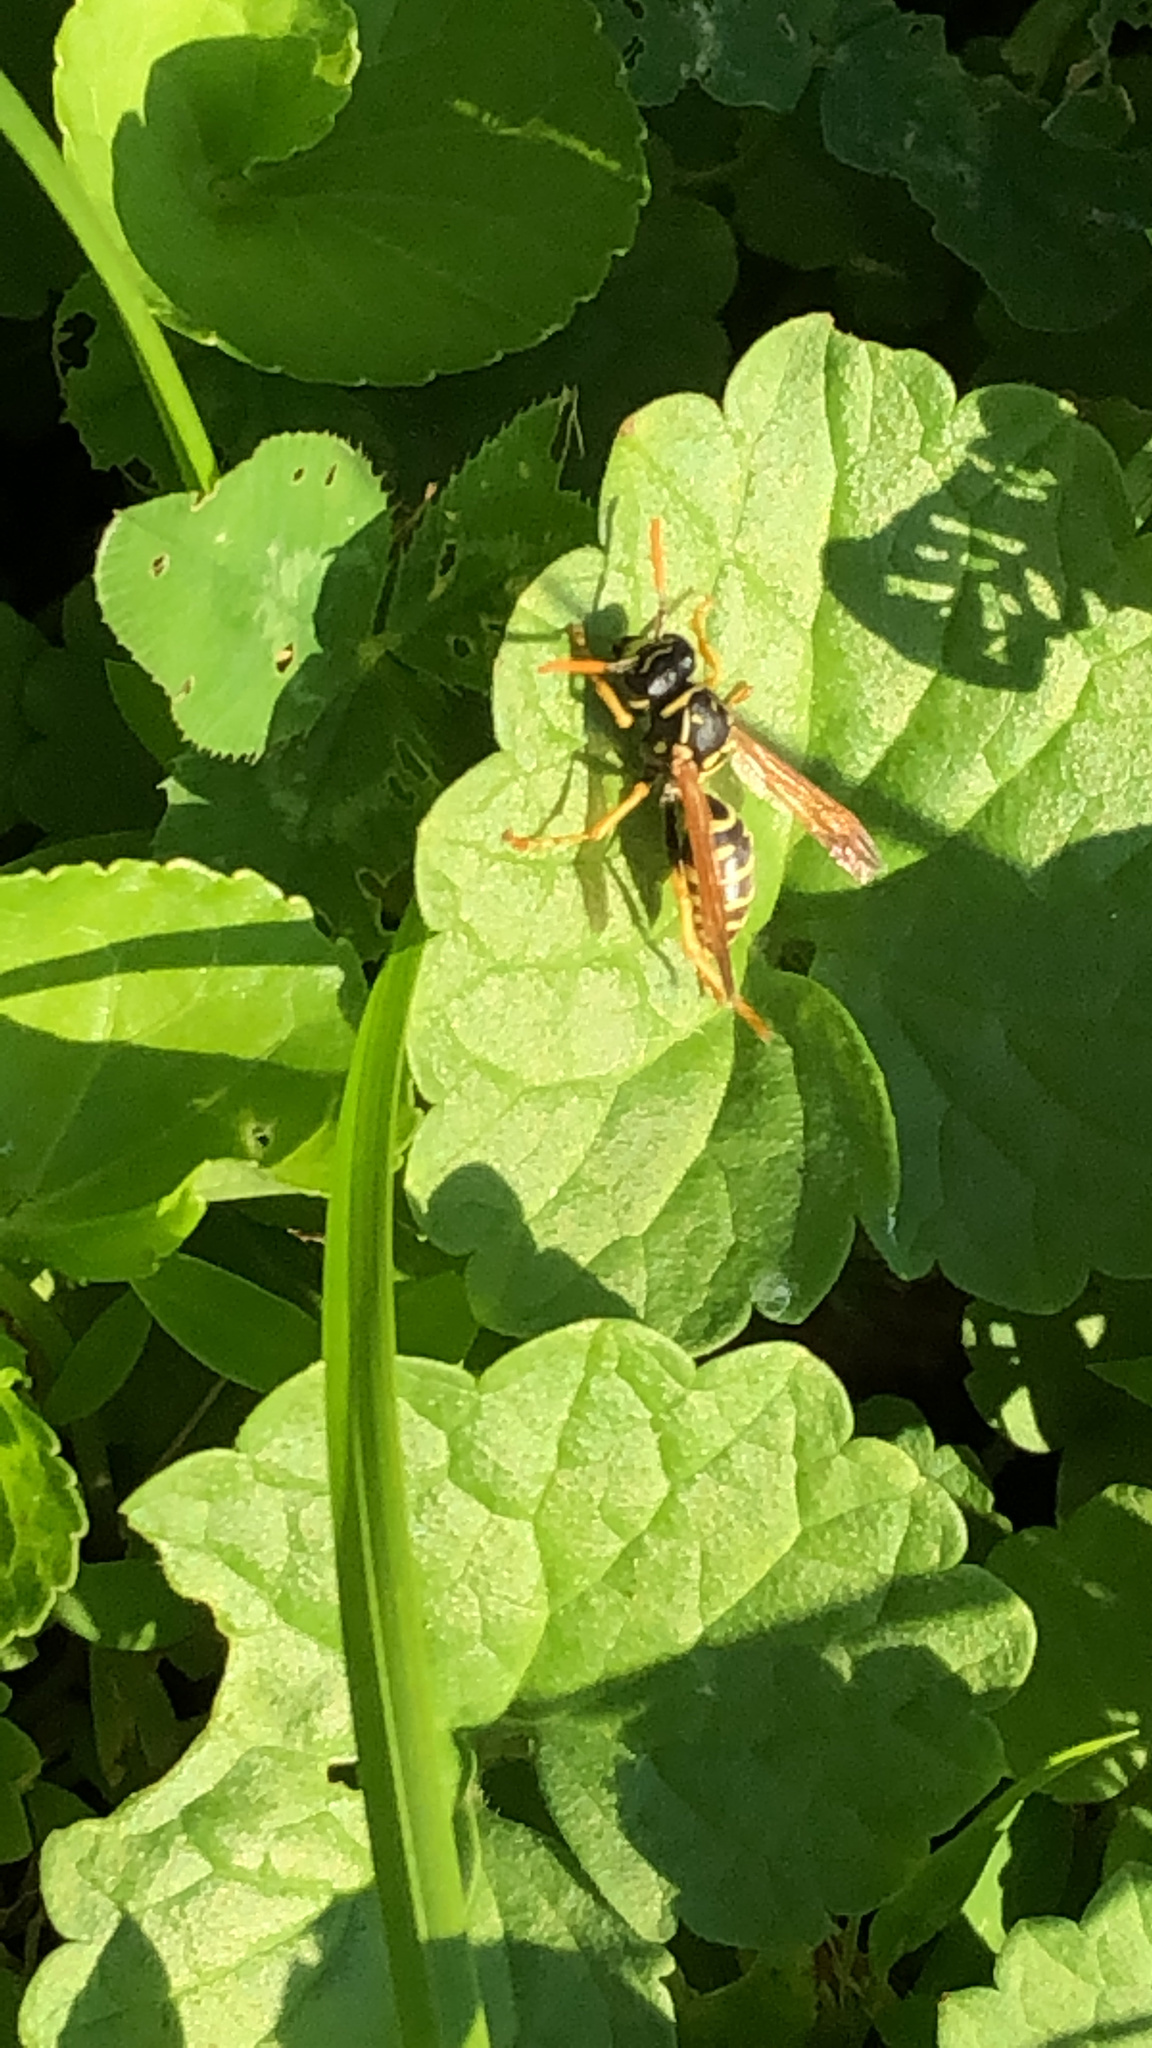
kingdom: Animalia
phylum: Arthropoda
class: Insecta
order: Hymenoptera
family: Eumenidae
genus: Polistes
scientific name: Polistes dominula
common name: Paper wasp
